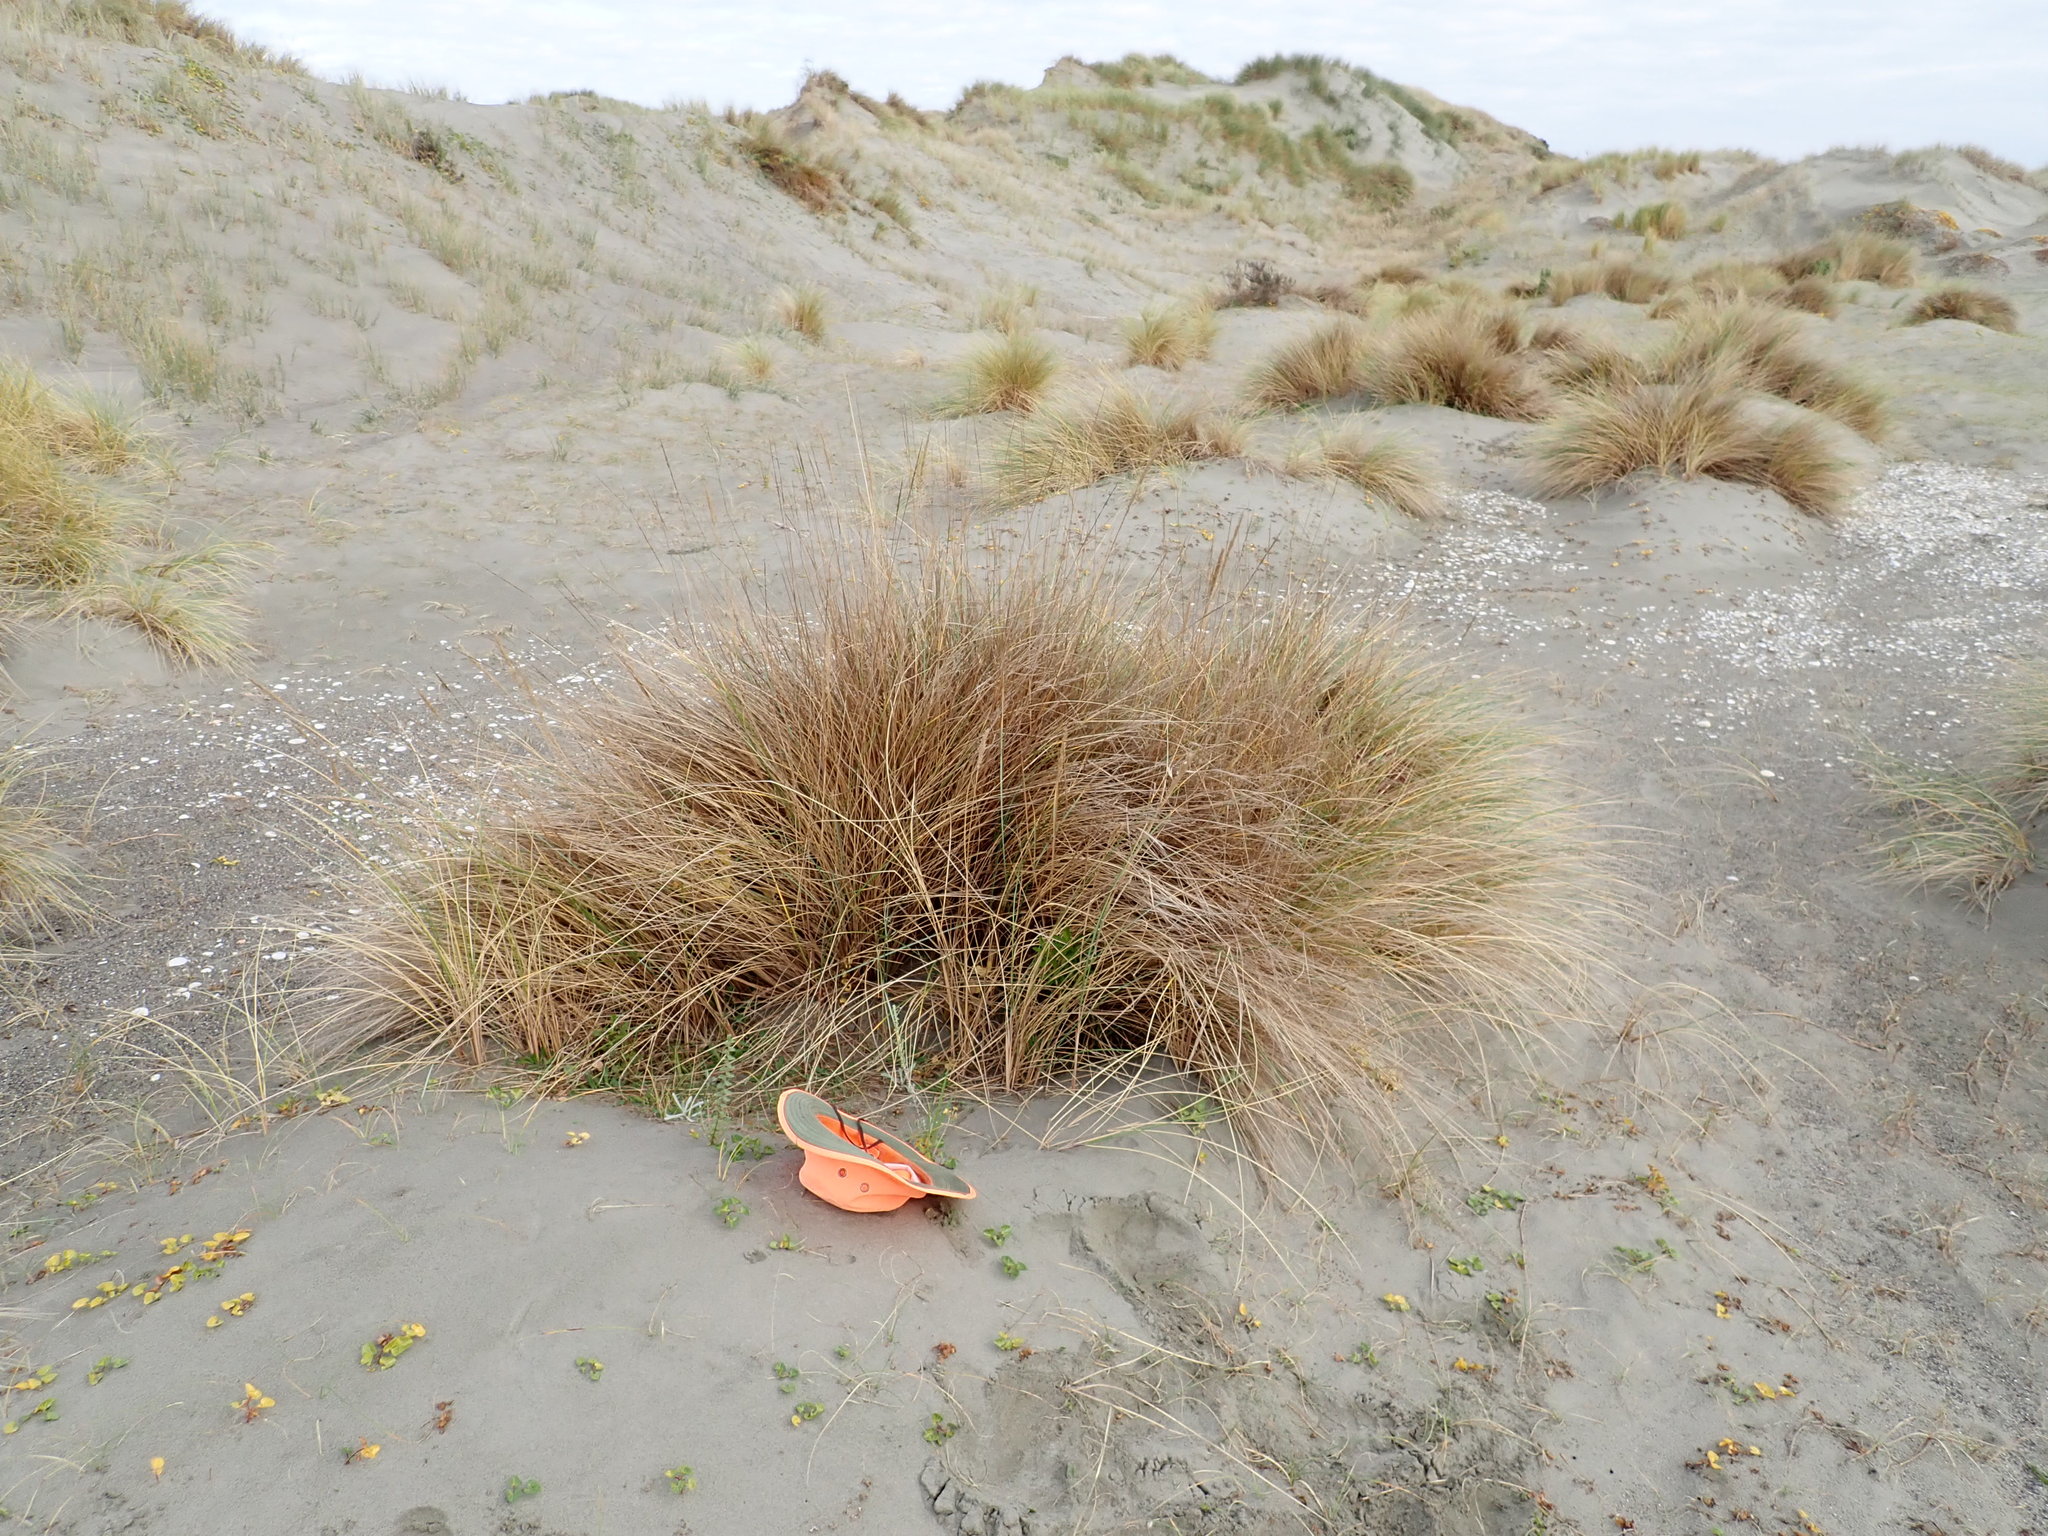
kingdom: Plantae
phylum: Tracheophyta
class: Magnoliopsida
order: Solanales
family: Convolvulaceae
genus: Calystegia
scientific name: Calystegia soldanella
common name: Sea bindweed
